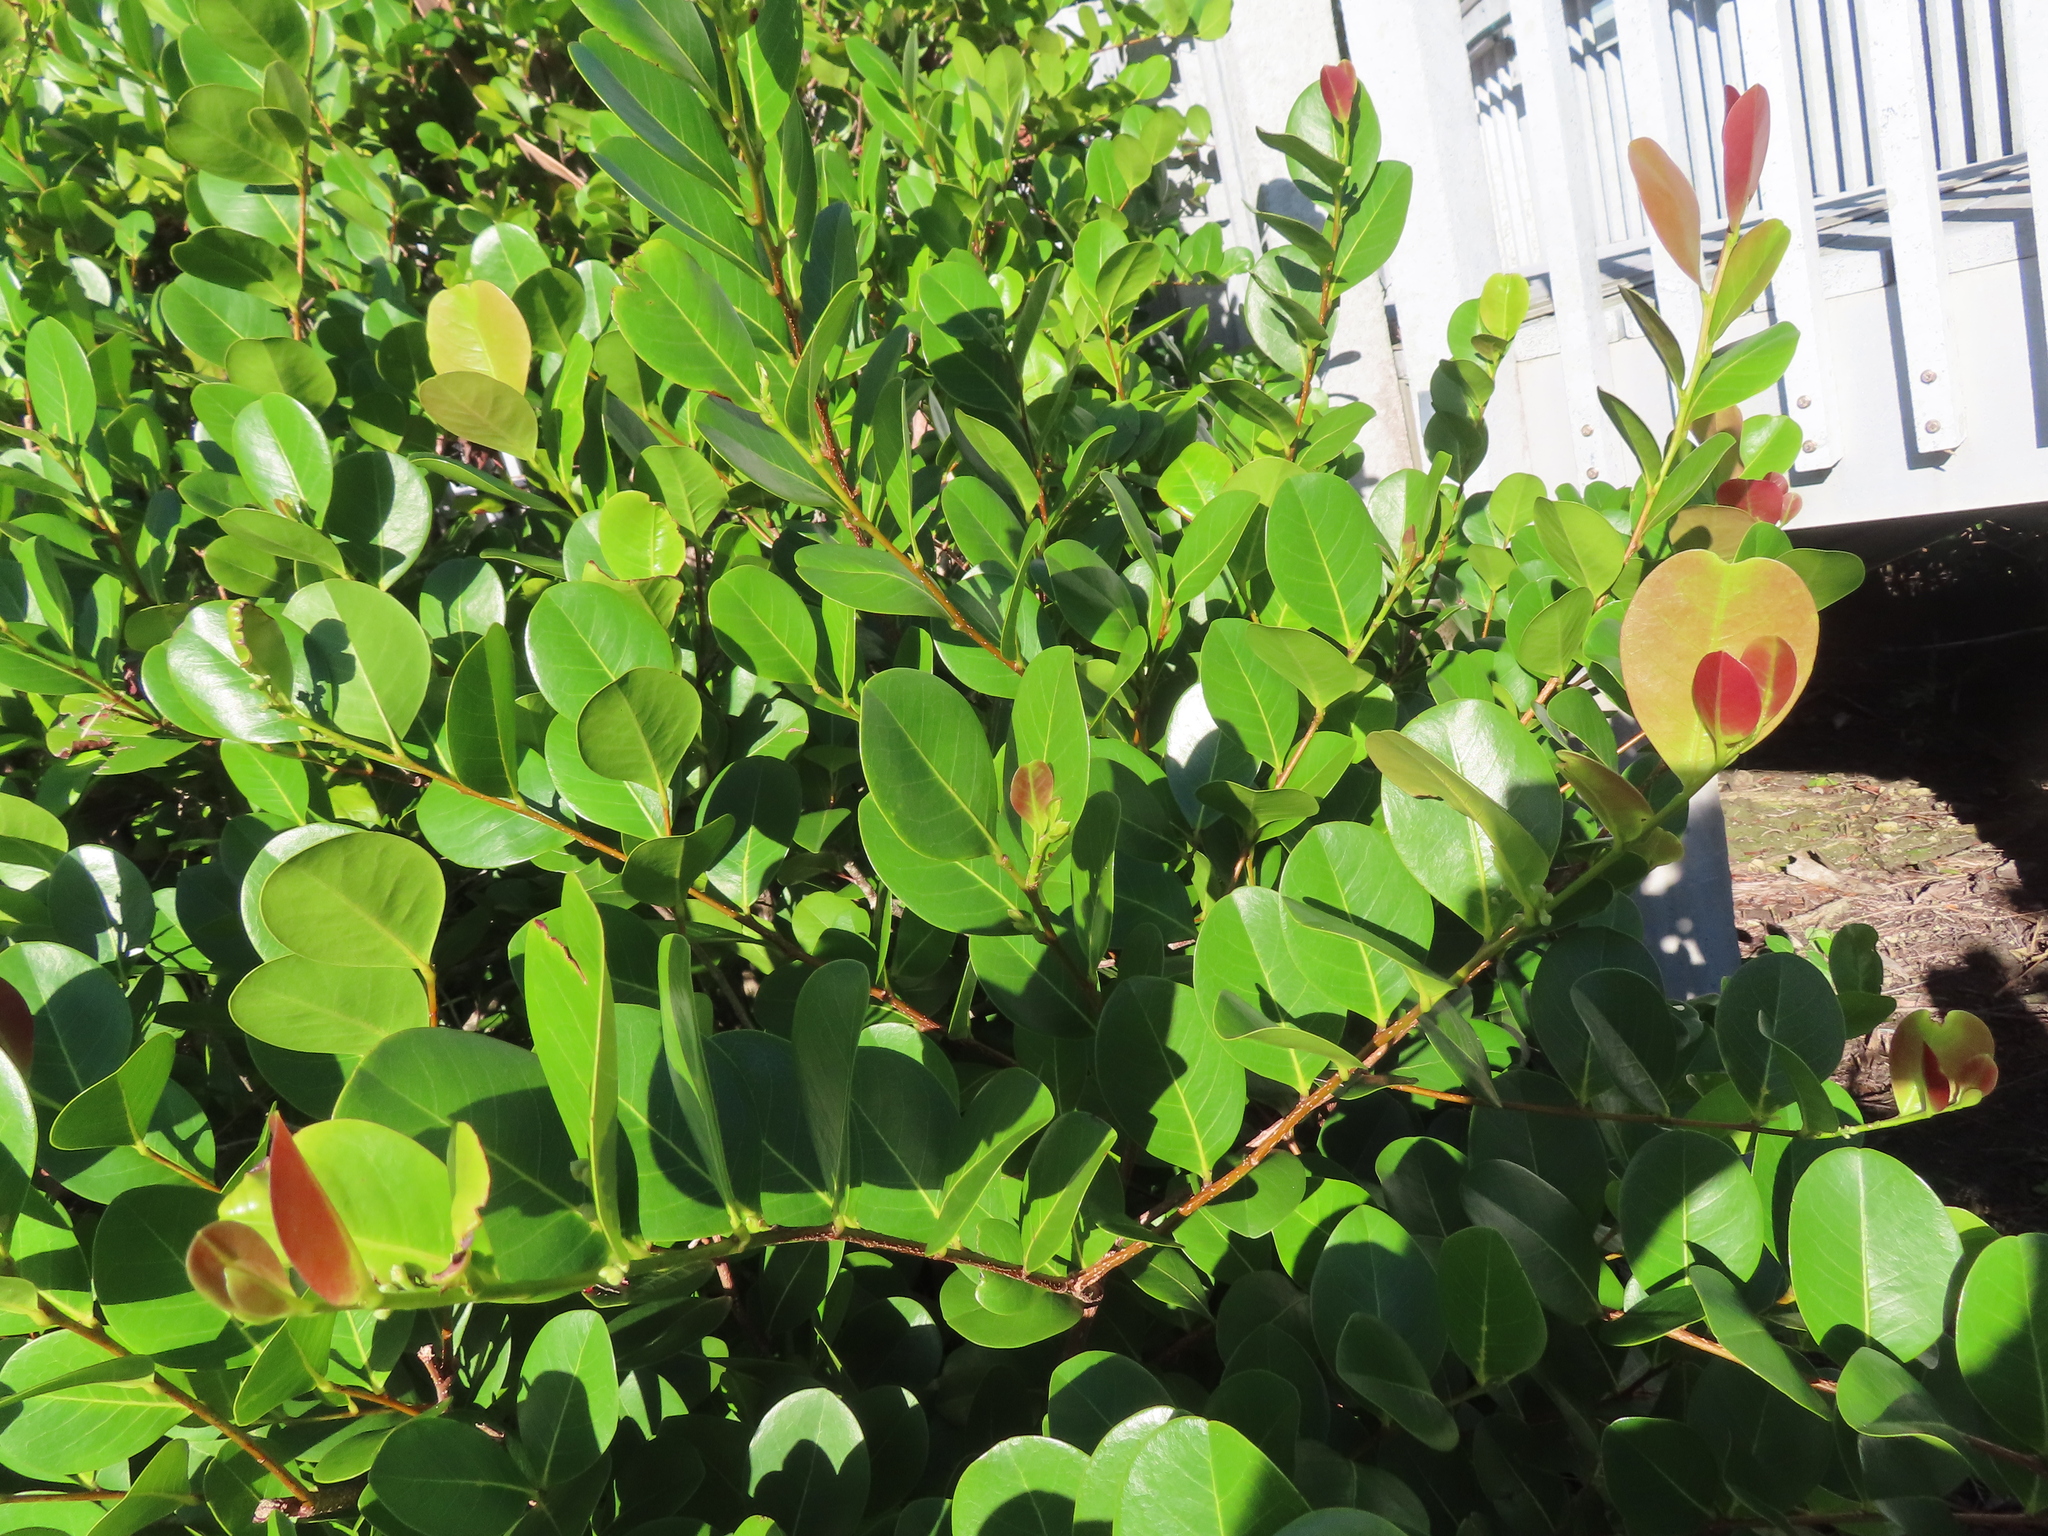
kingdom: Plantae
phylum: Tracheophyta
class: Magnoliopsida
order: Malpighiales
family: Chrysobalanaceae
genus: Chrysobalanus
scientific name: Chrysobalanus icaco
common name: Coco plum
